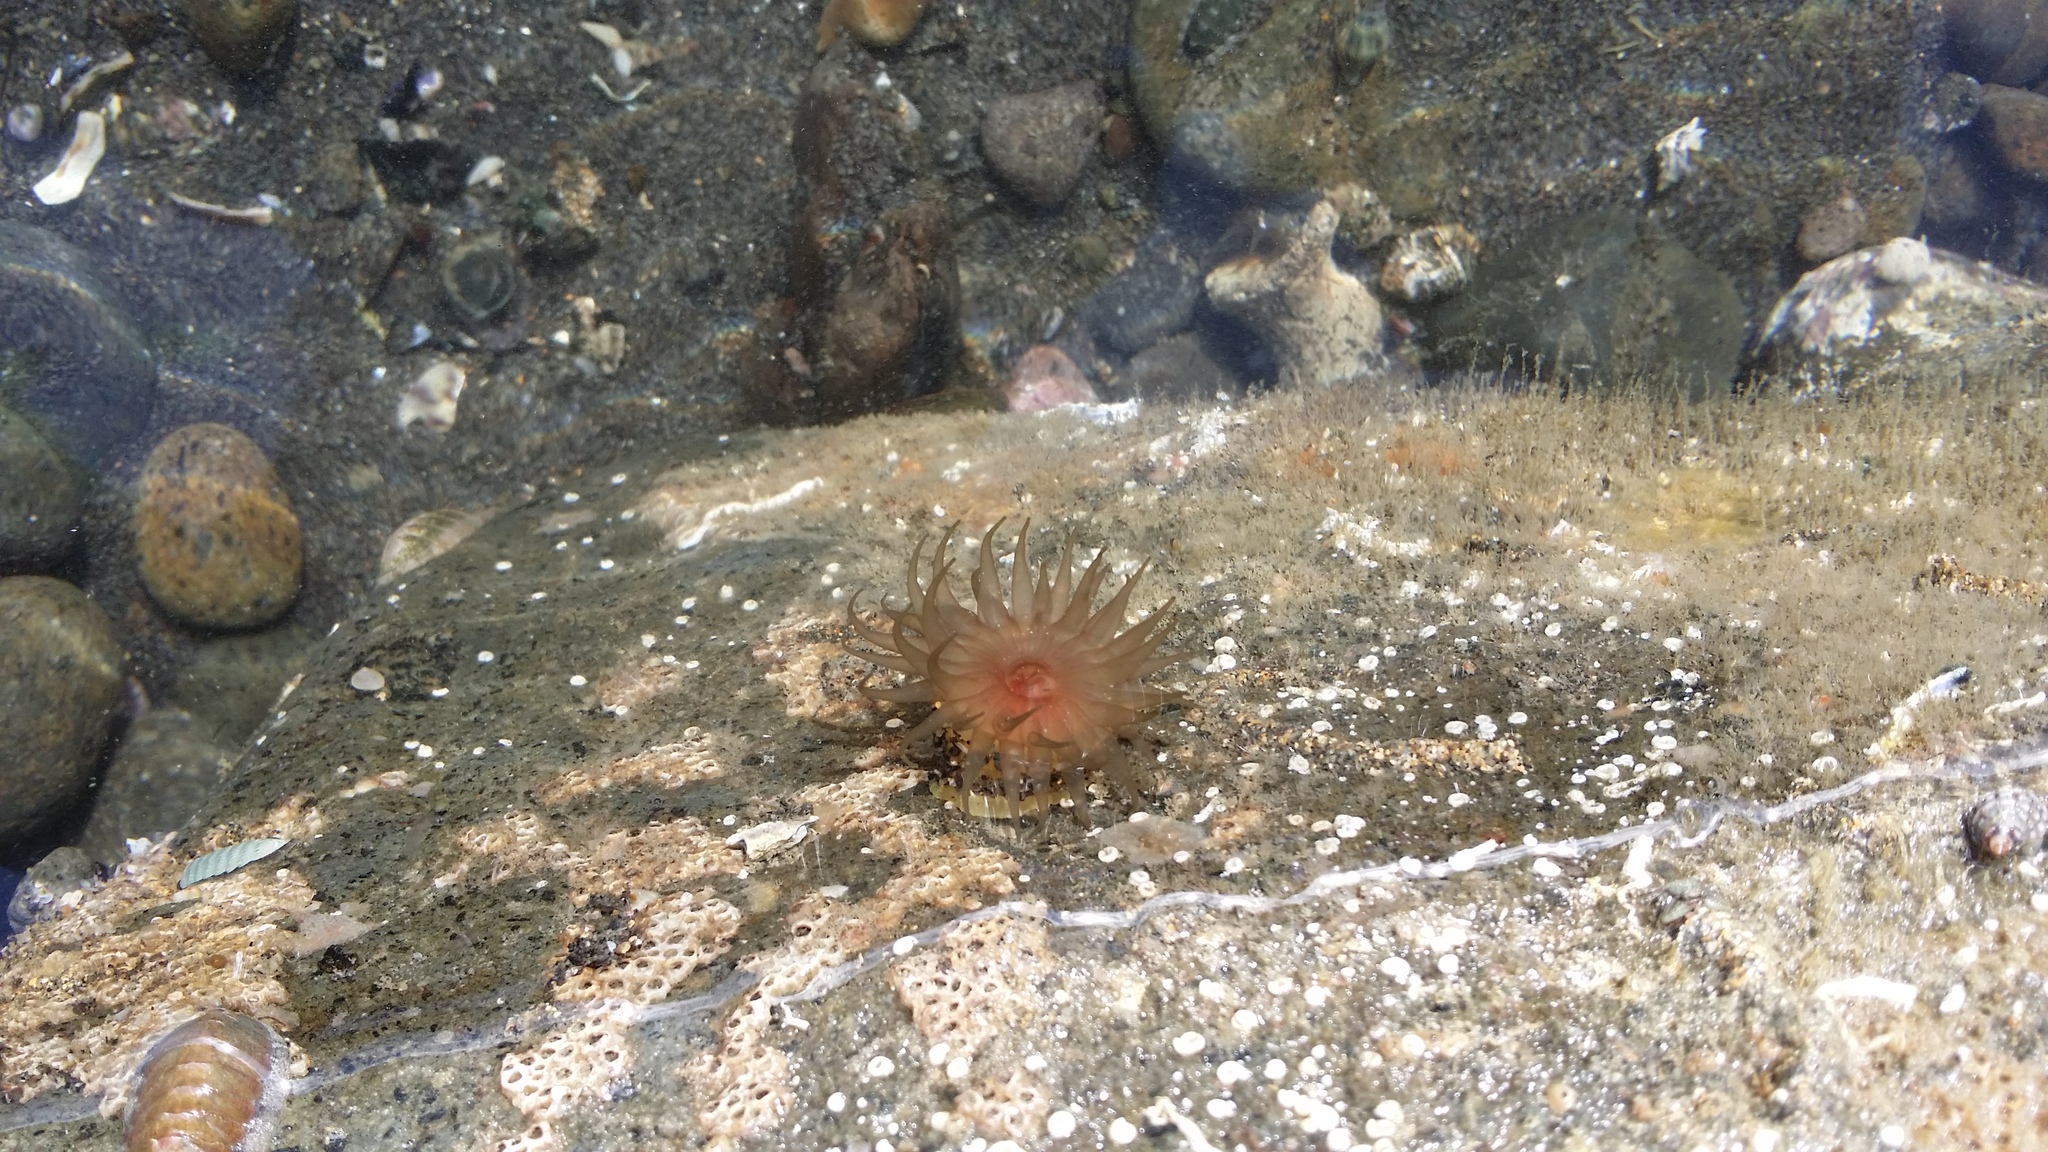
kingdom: Animalia
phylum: Cnidaria
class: Anthozoa
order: Actiniaria
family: Actiniidae
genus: Isactinia
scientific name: Isactinia olivacea
